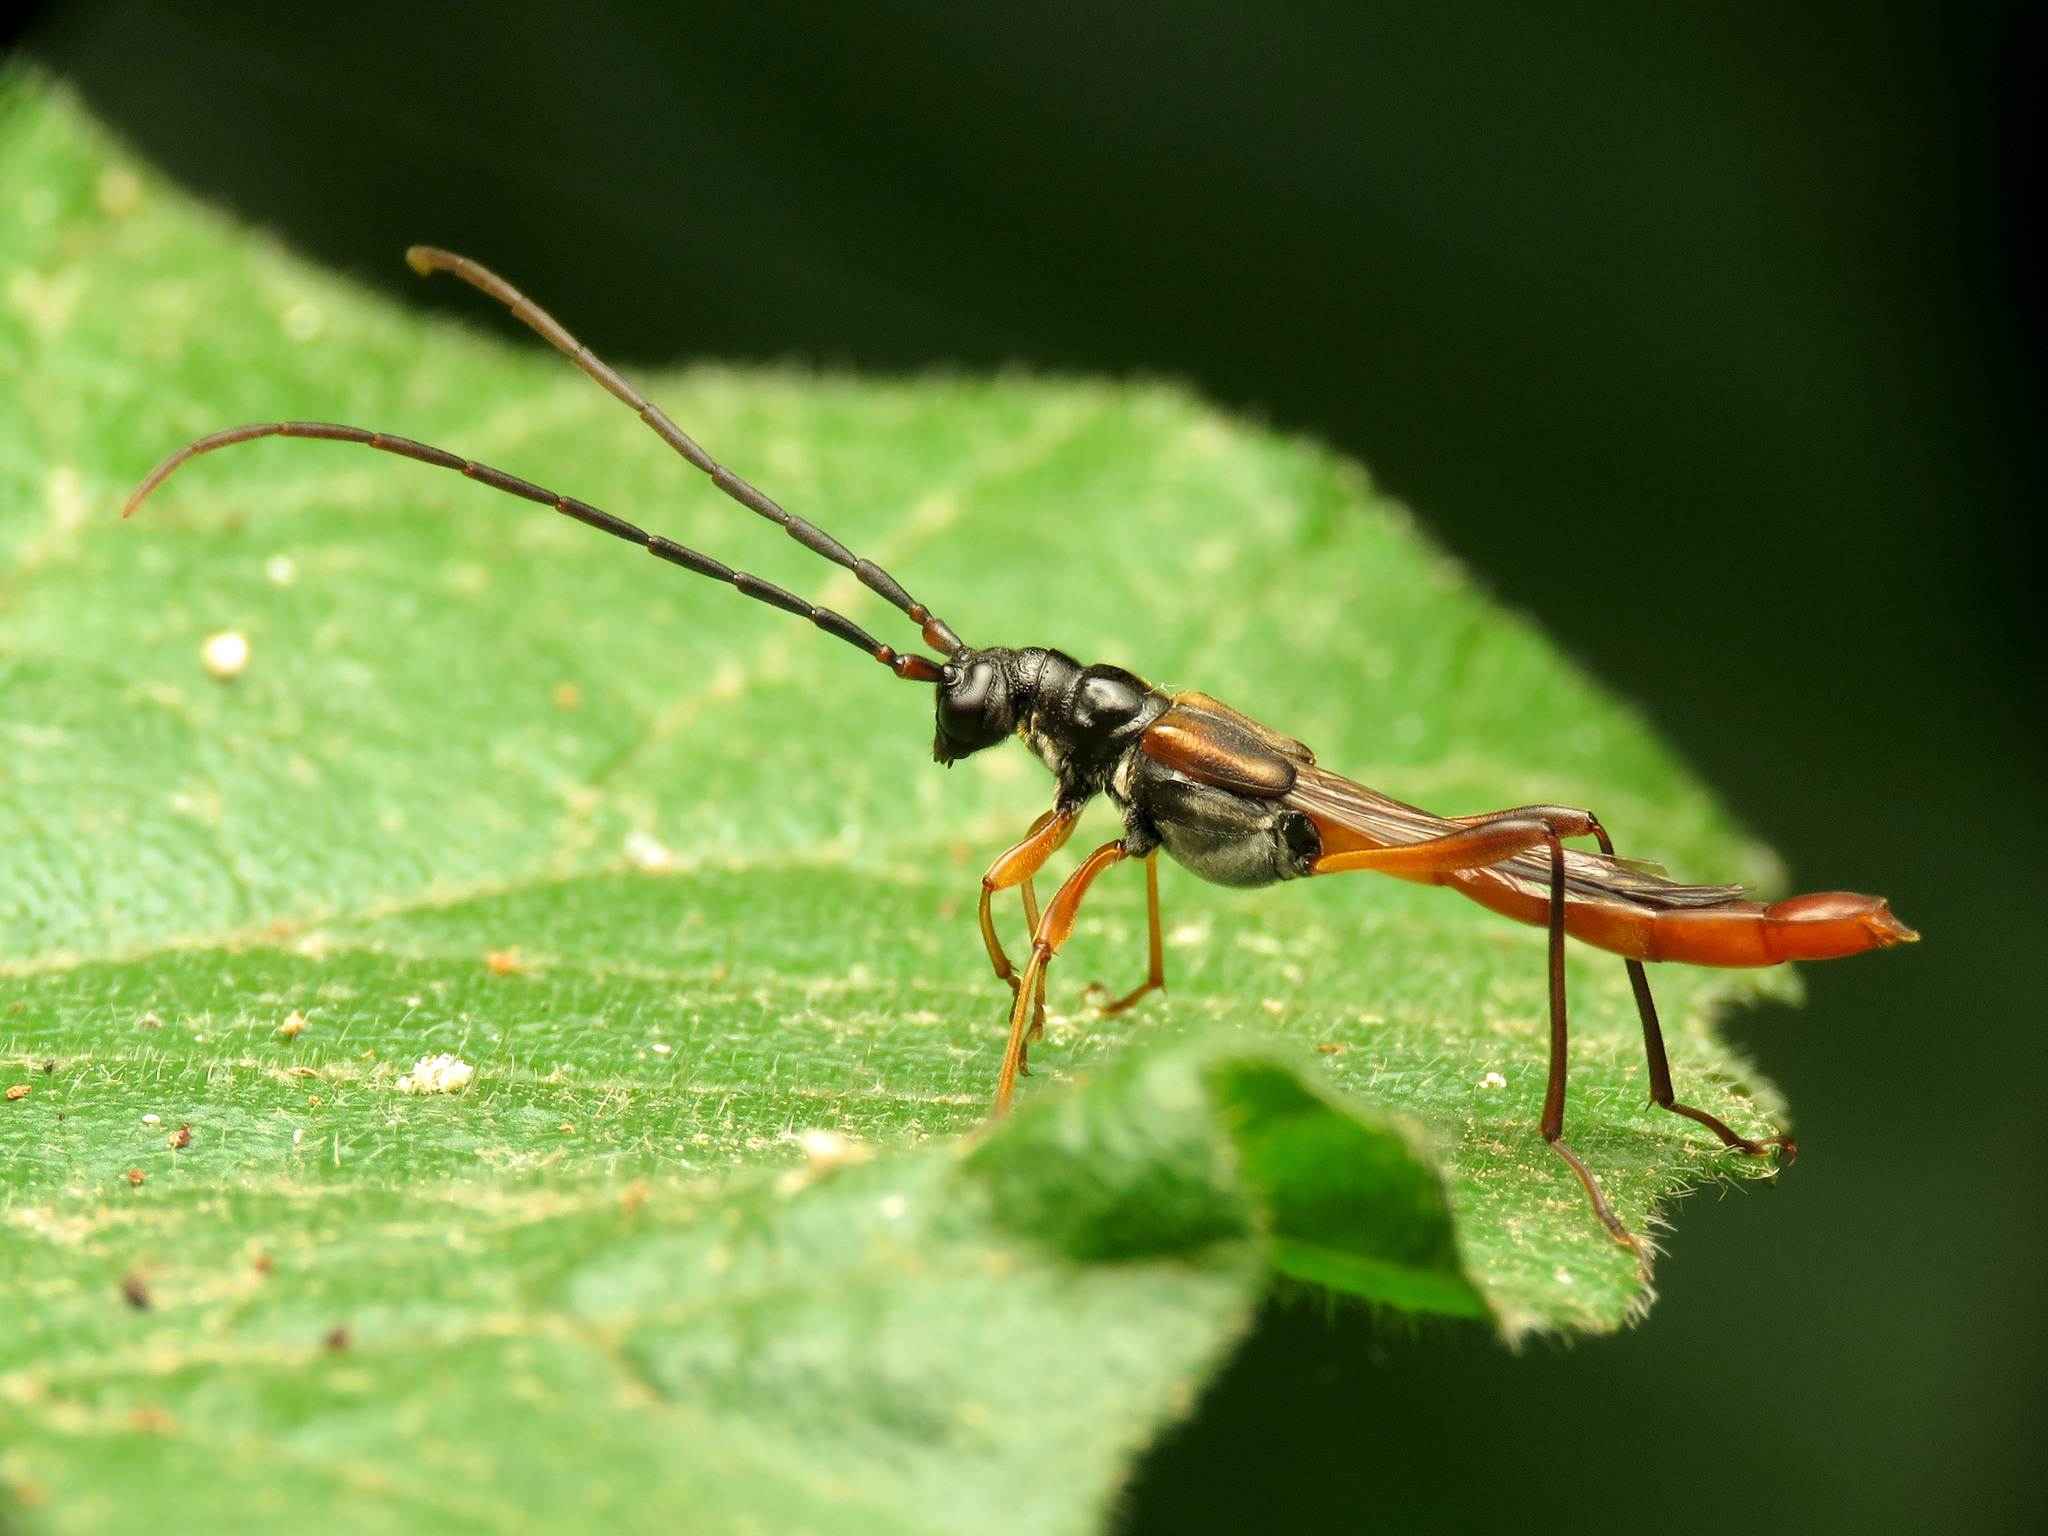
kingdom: Animalia
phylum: Arthropoda
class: Insecta
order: Coleoptera
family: Cerambycidae
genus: Necydalis
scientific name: Necydalis mellita
